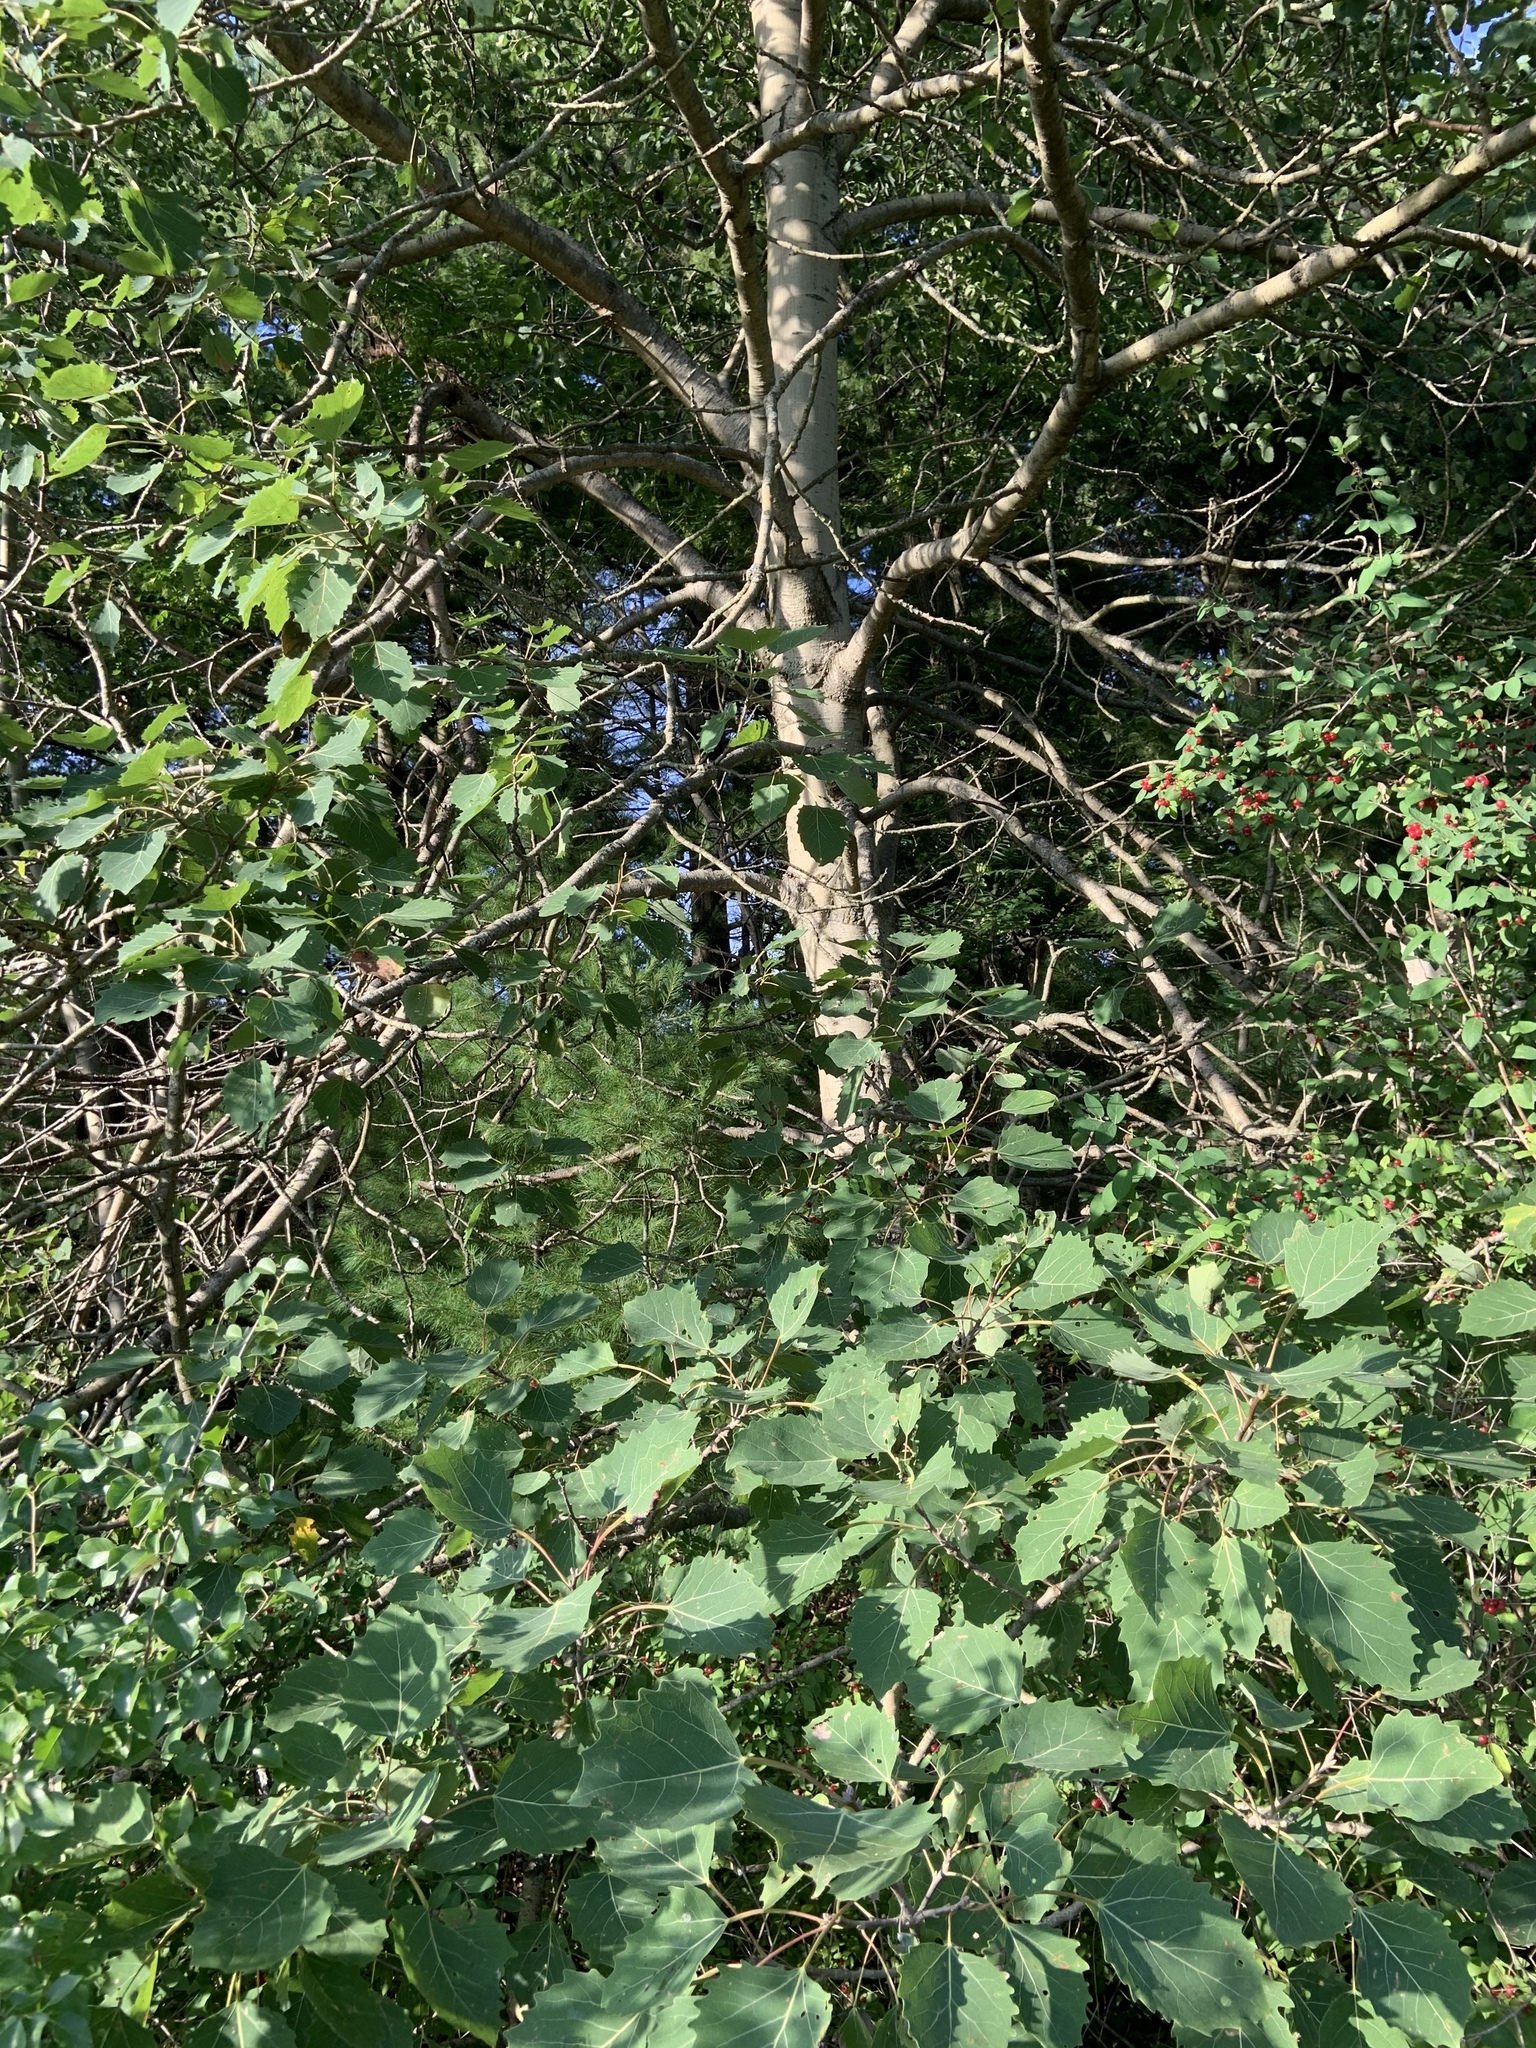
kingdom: Plantae
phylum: Tracheophyta
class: Magnoliopsida
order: Malpighiales
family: Salicaceae
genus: Populus
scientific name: Populus grandidentata
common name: Bigtooth aspen
